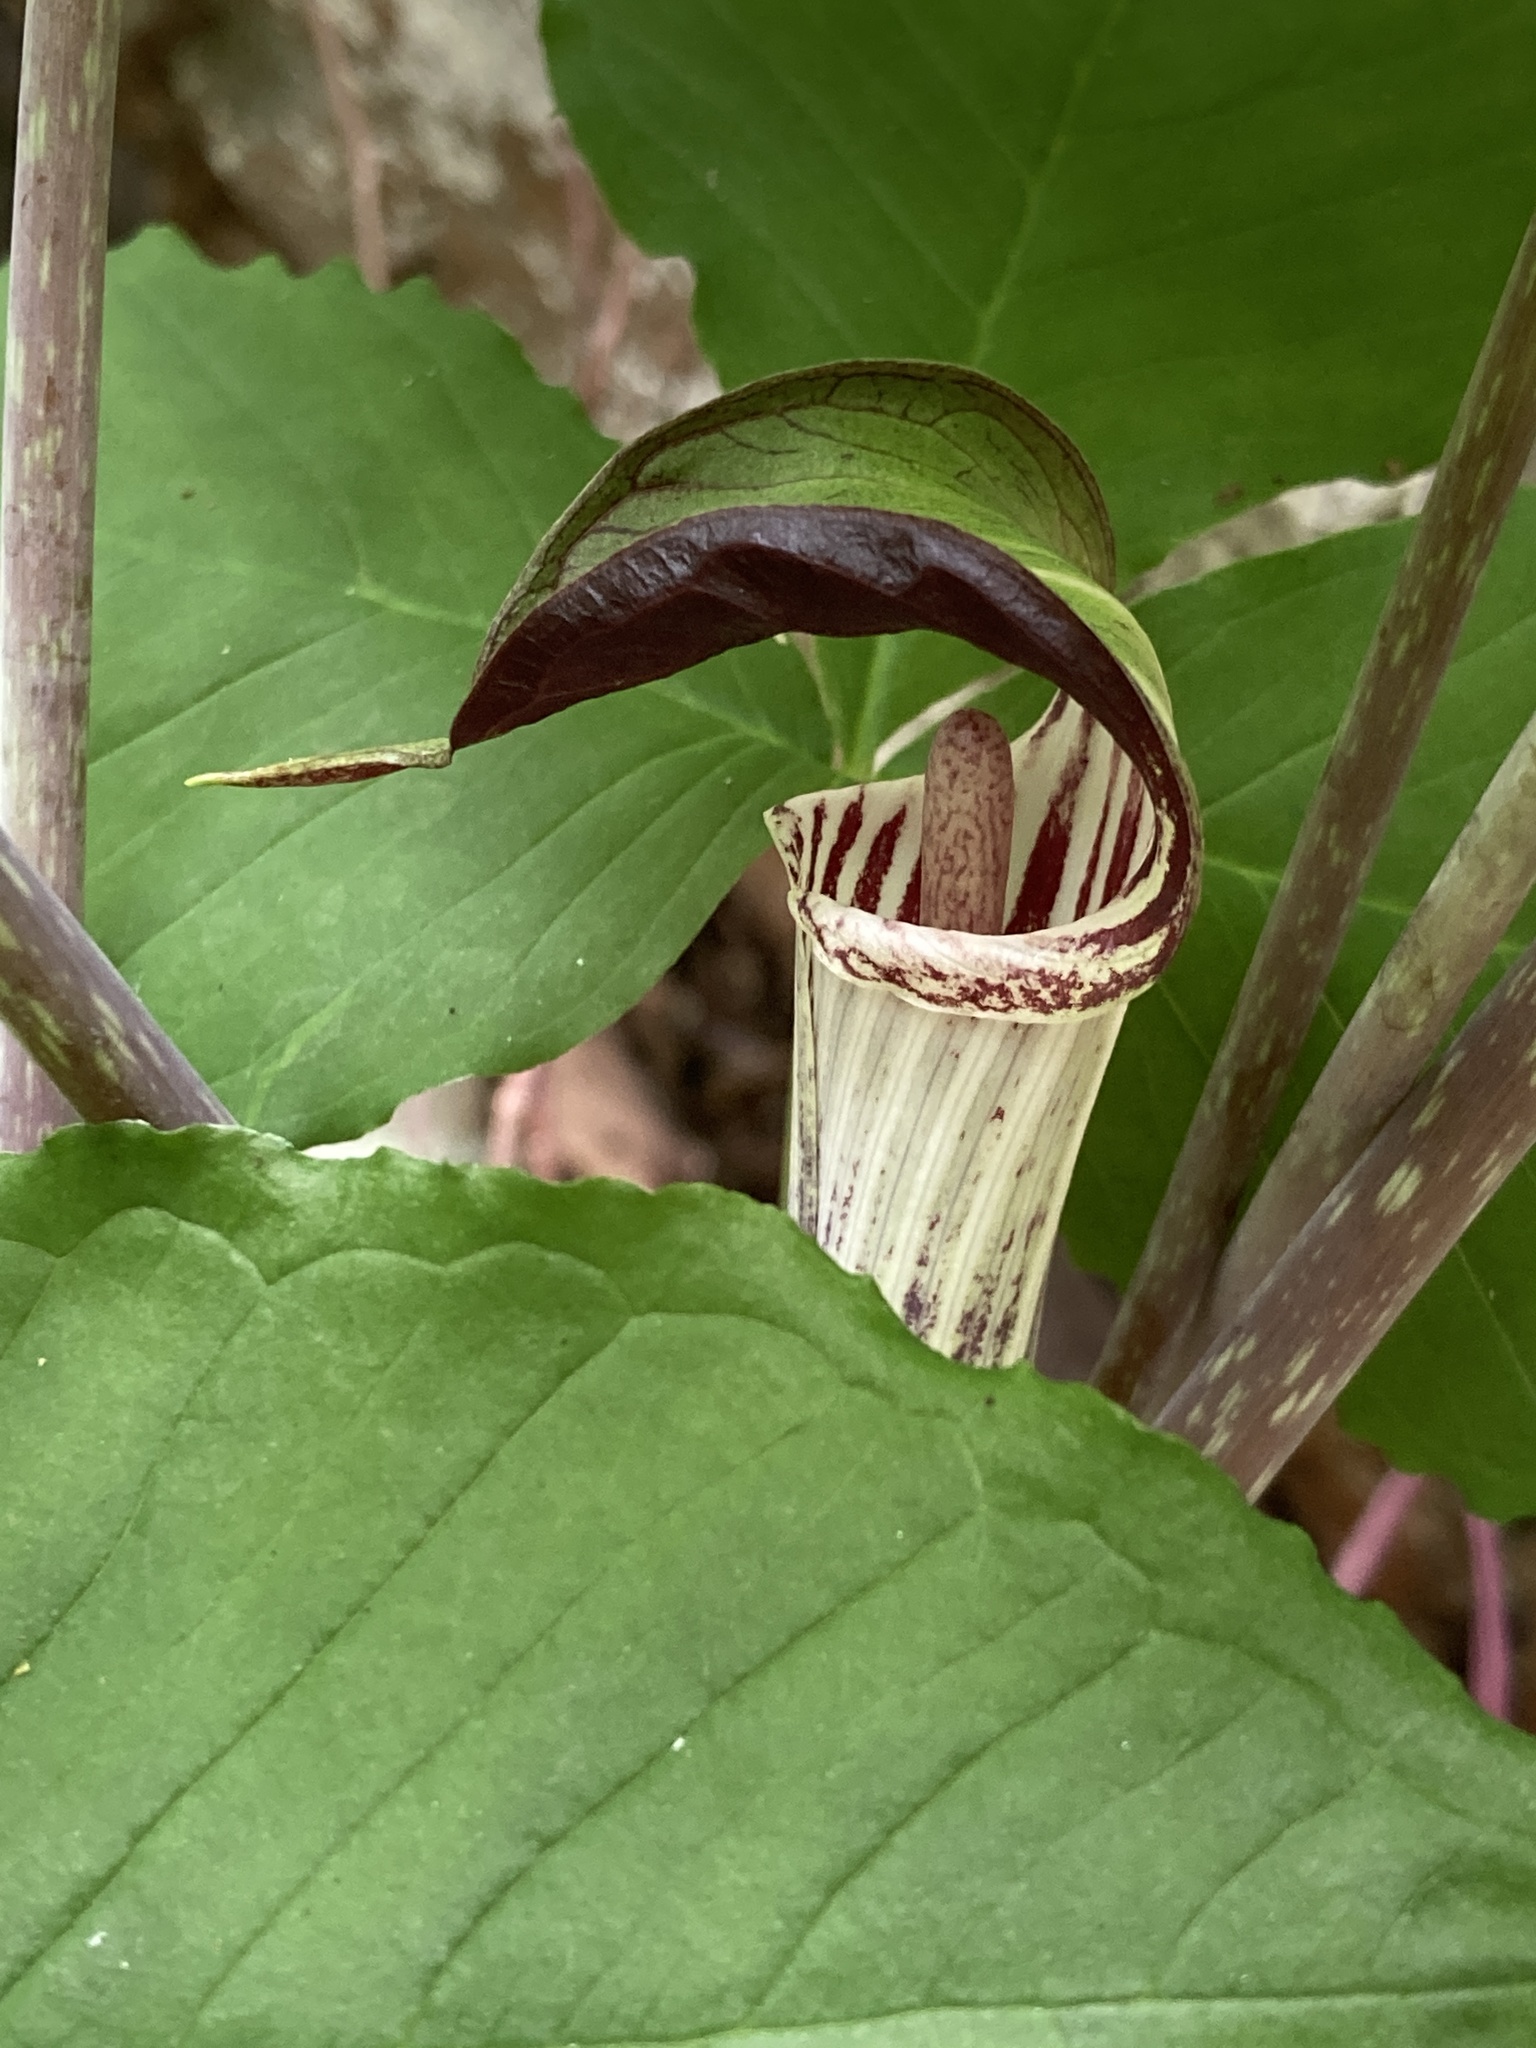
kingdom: Plantae
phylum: Tracheophyta
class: Liliopsida
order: Alismatales
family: Araceae
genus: Arisaema
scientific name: Arisaema triphyllum
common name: Jack-in-the-pulpit
